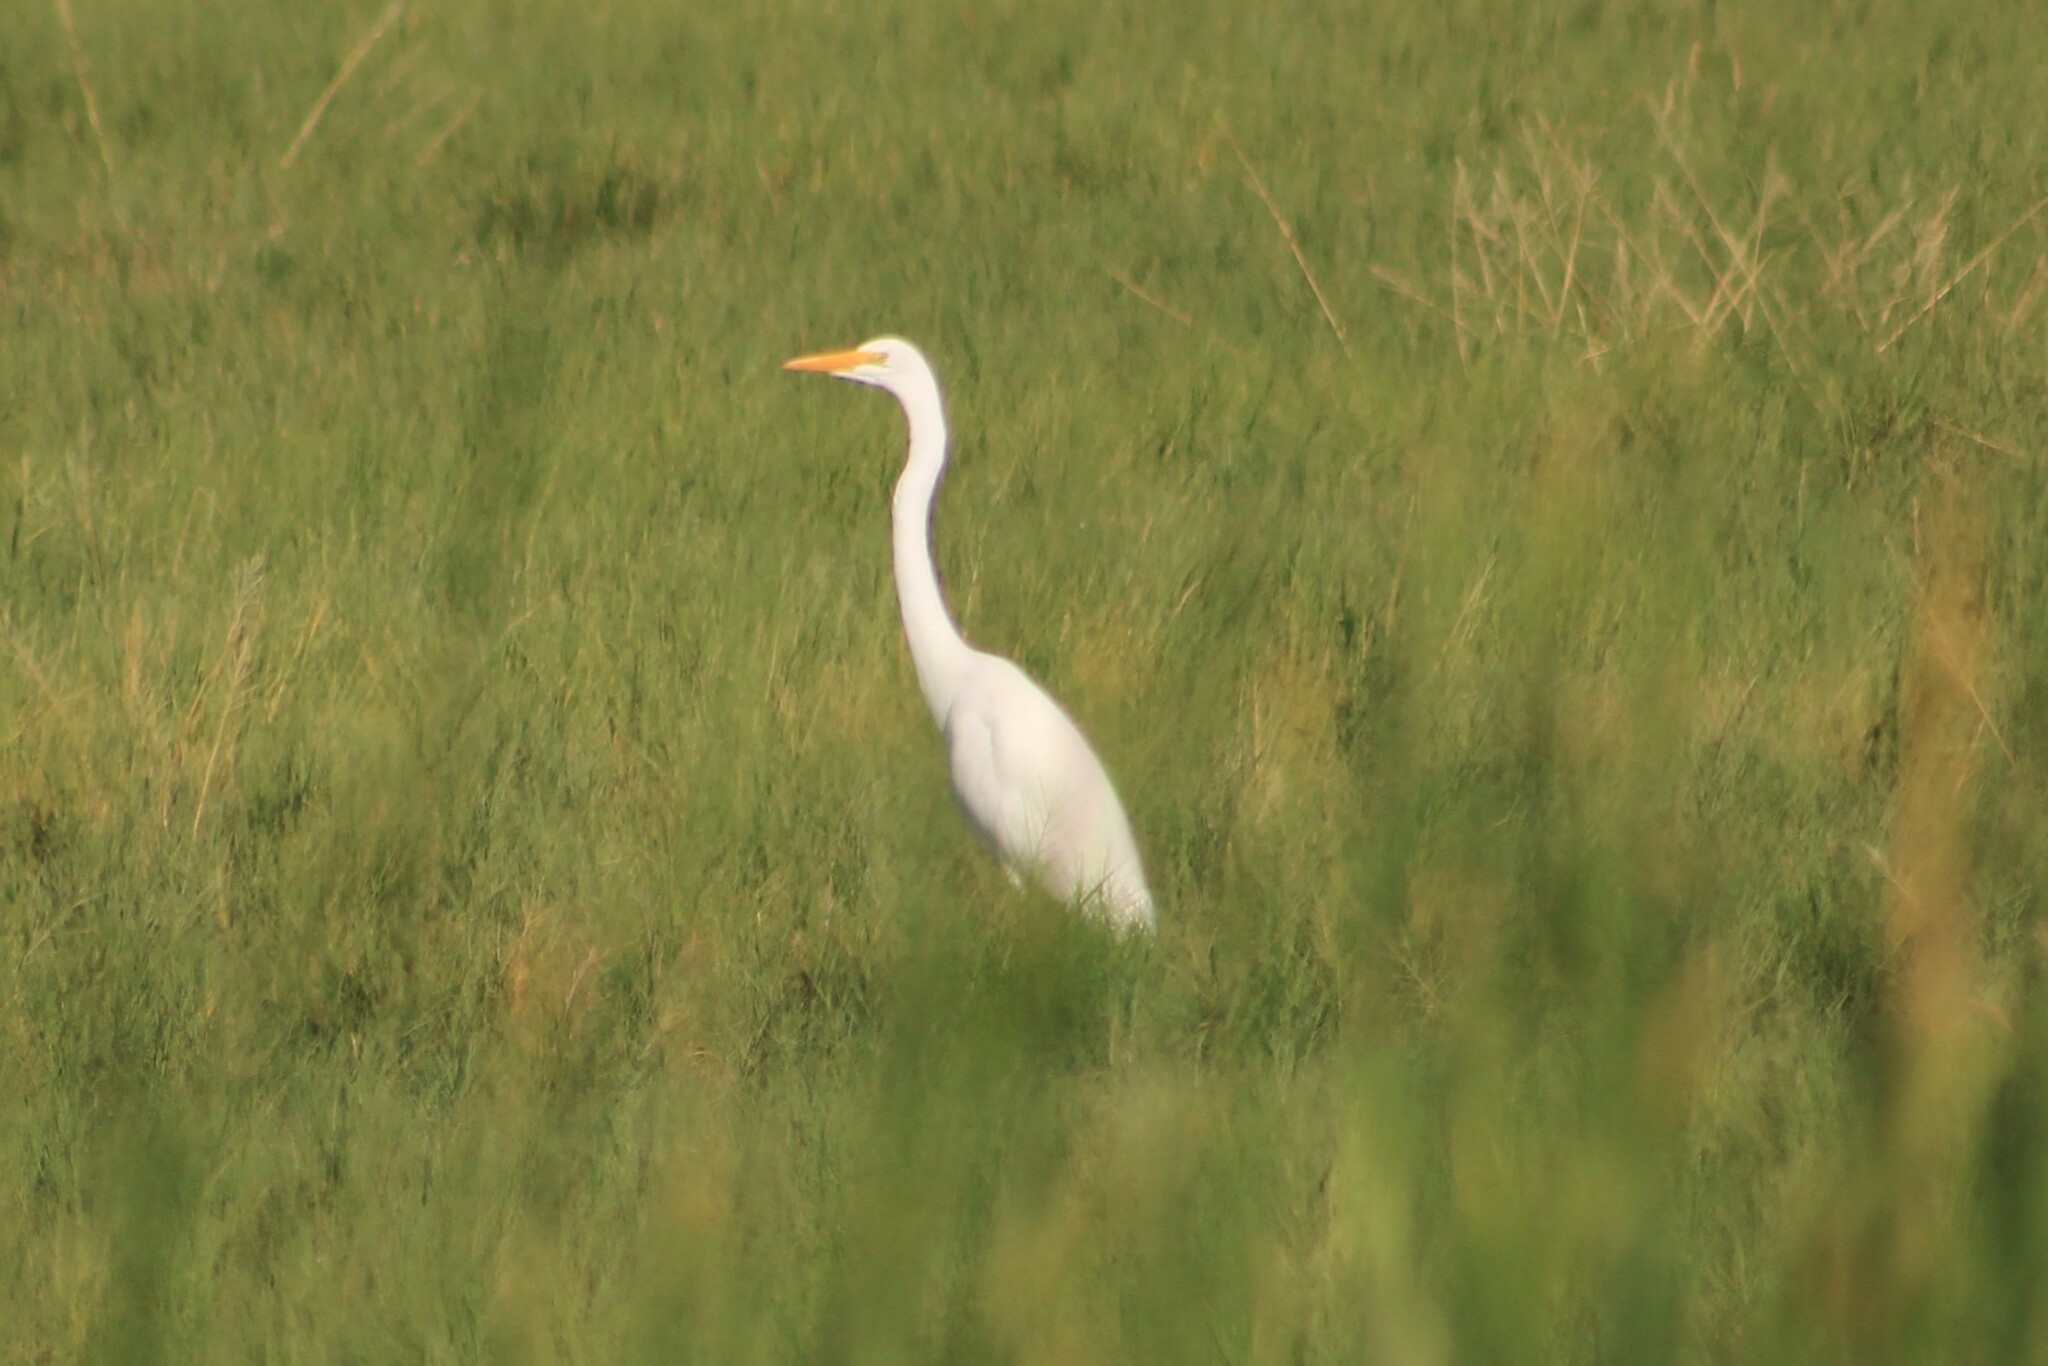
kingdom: Animalia
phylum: Chordata
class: Aves
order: Pelecaniformes
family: Ardeidae
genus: Ardea
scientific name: Ardea alba
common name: Great egret
